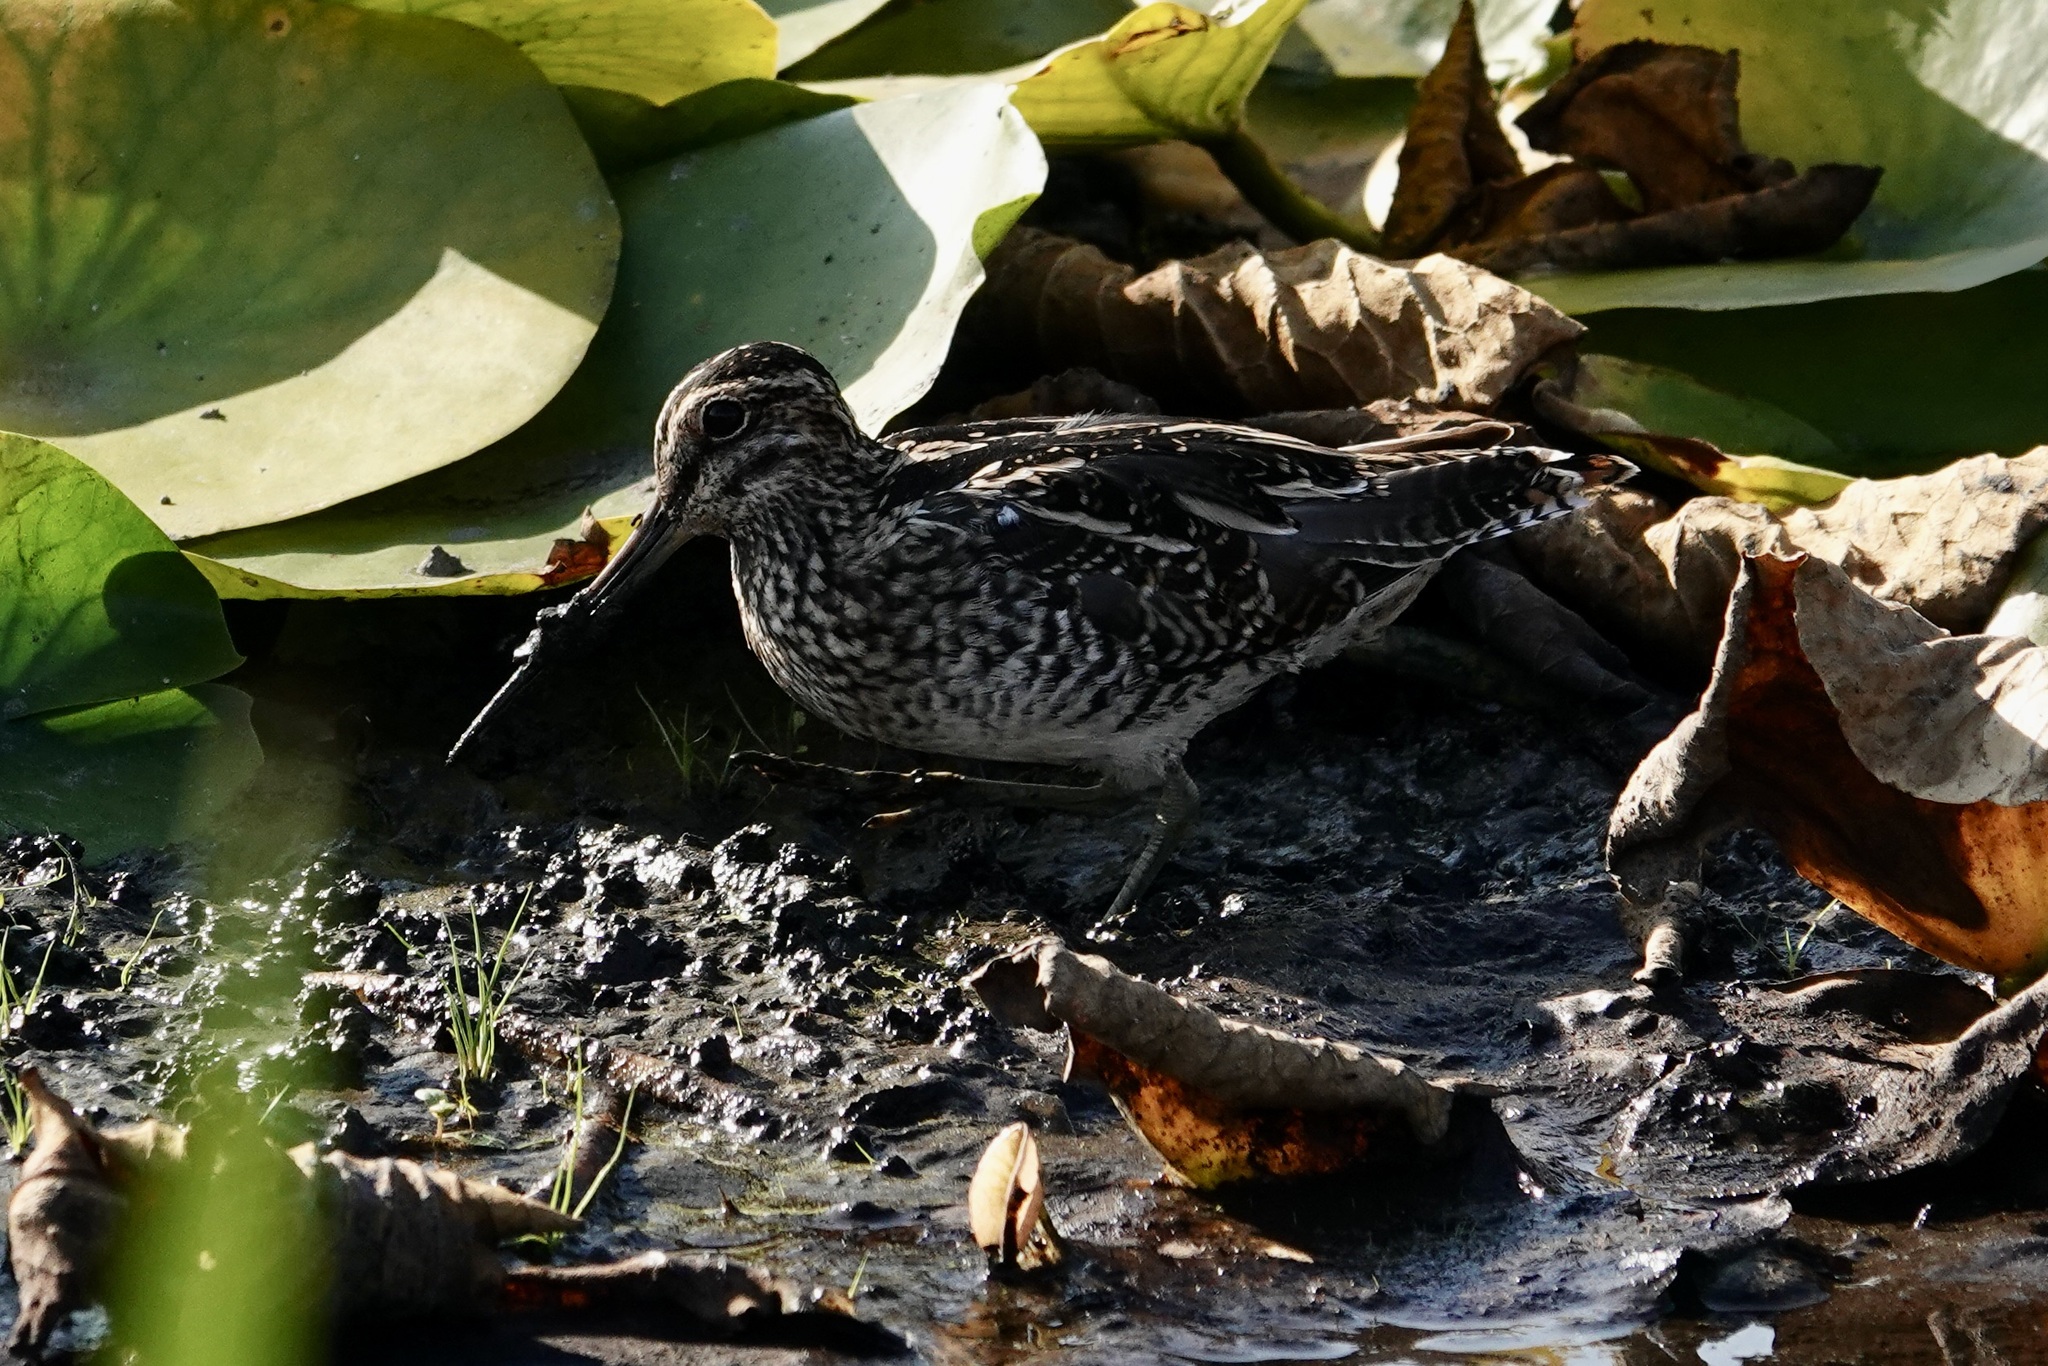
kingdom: Animalia
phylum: Chordata
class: Aves
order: Charadriiformes
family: Scolopacidae
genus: Gallinago
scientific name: Gallinago delicata
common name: Wilson's snipe
